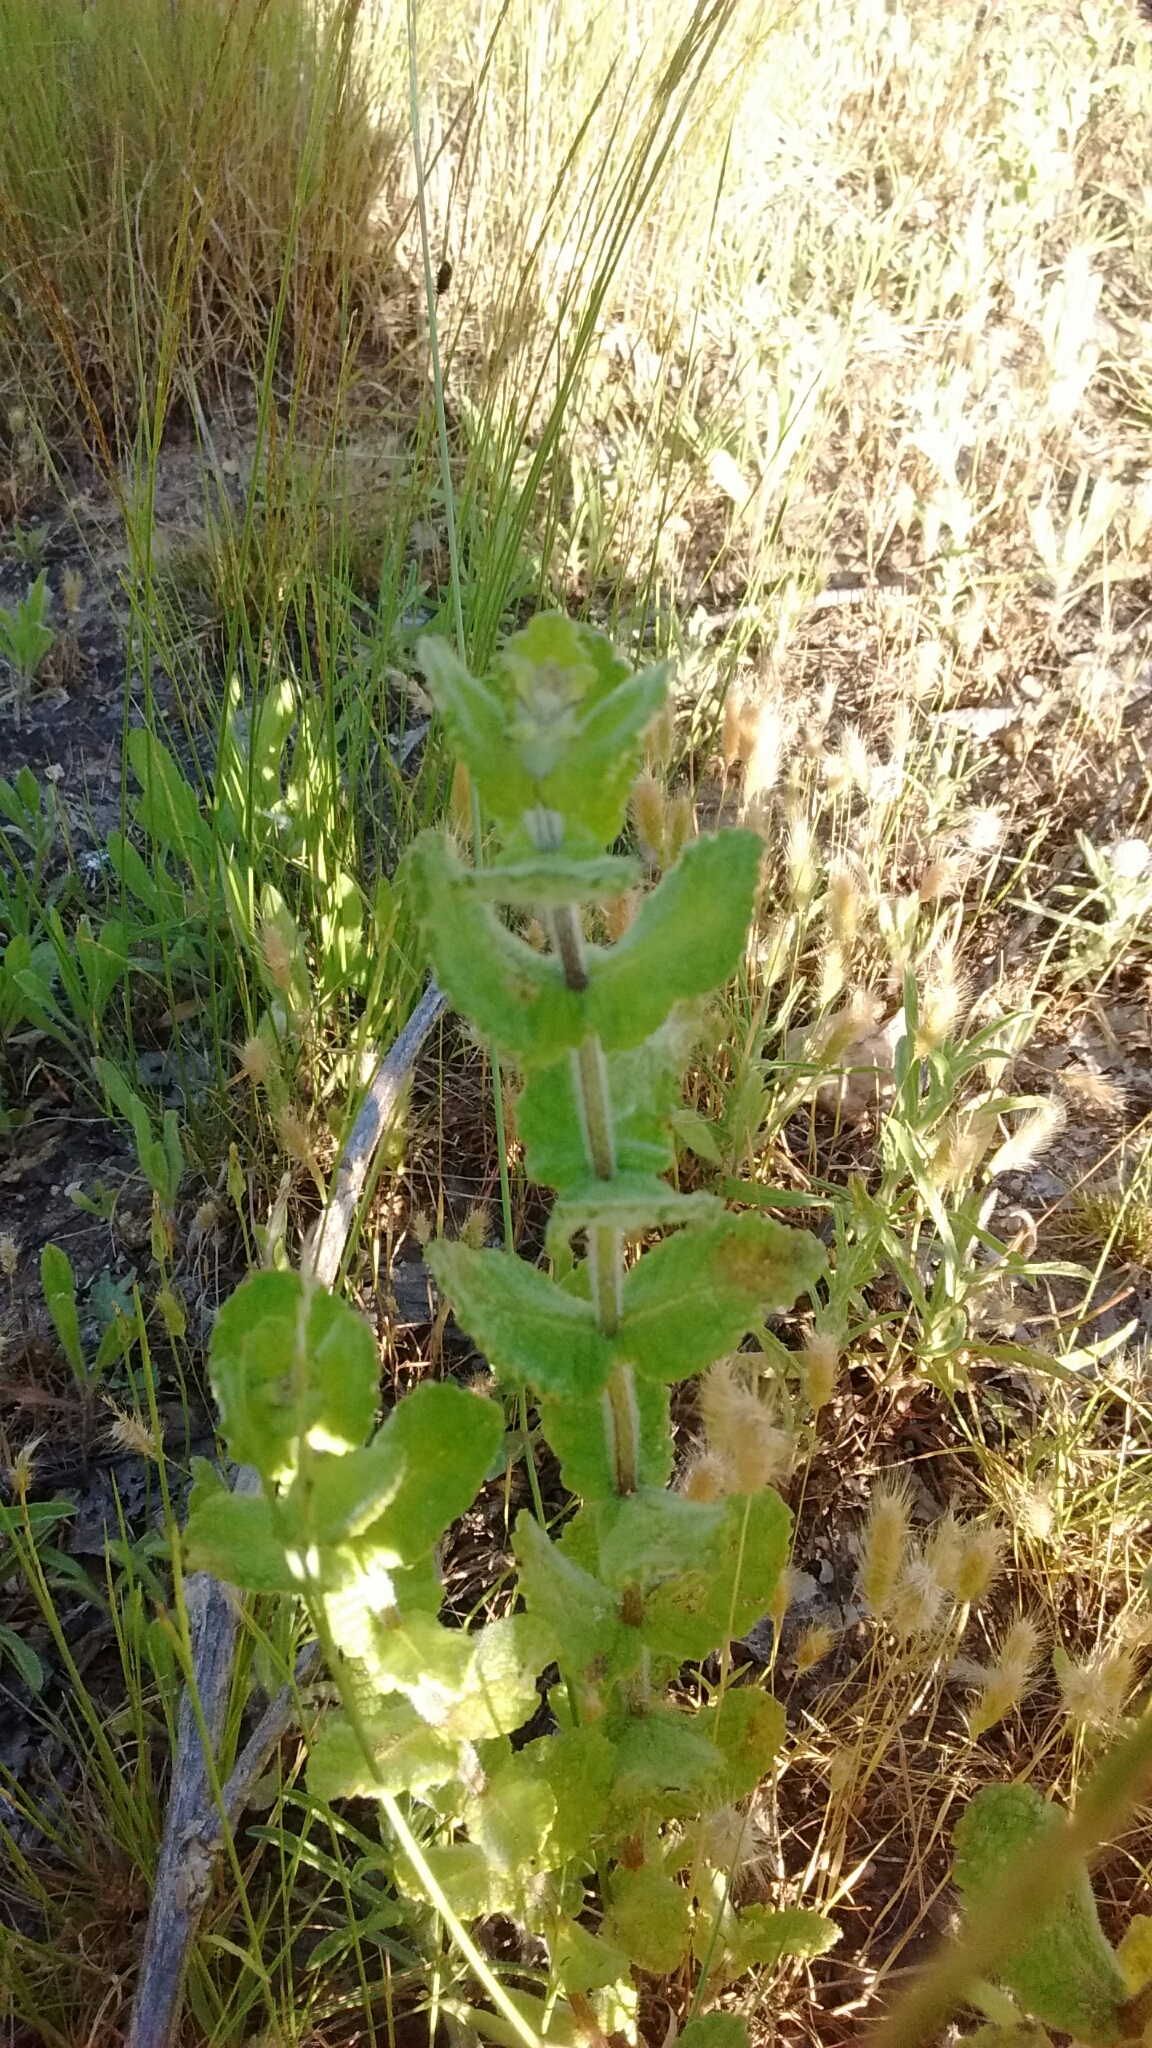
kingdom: Plantae
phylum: Tracheophyta
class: Magnoliopsida
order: Lamiales
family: Lamiaceae
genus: Mentha
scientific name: Mentha suaveolens
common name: Apple mint
